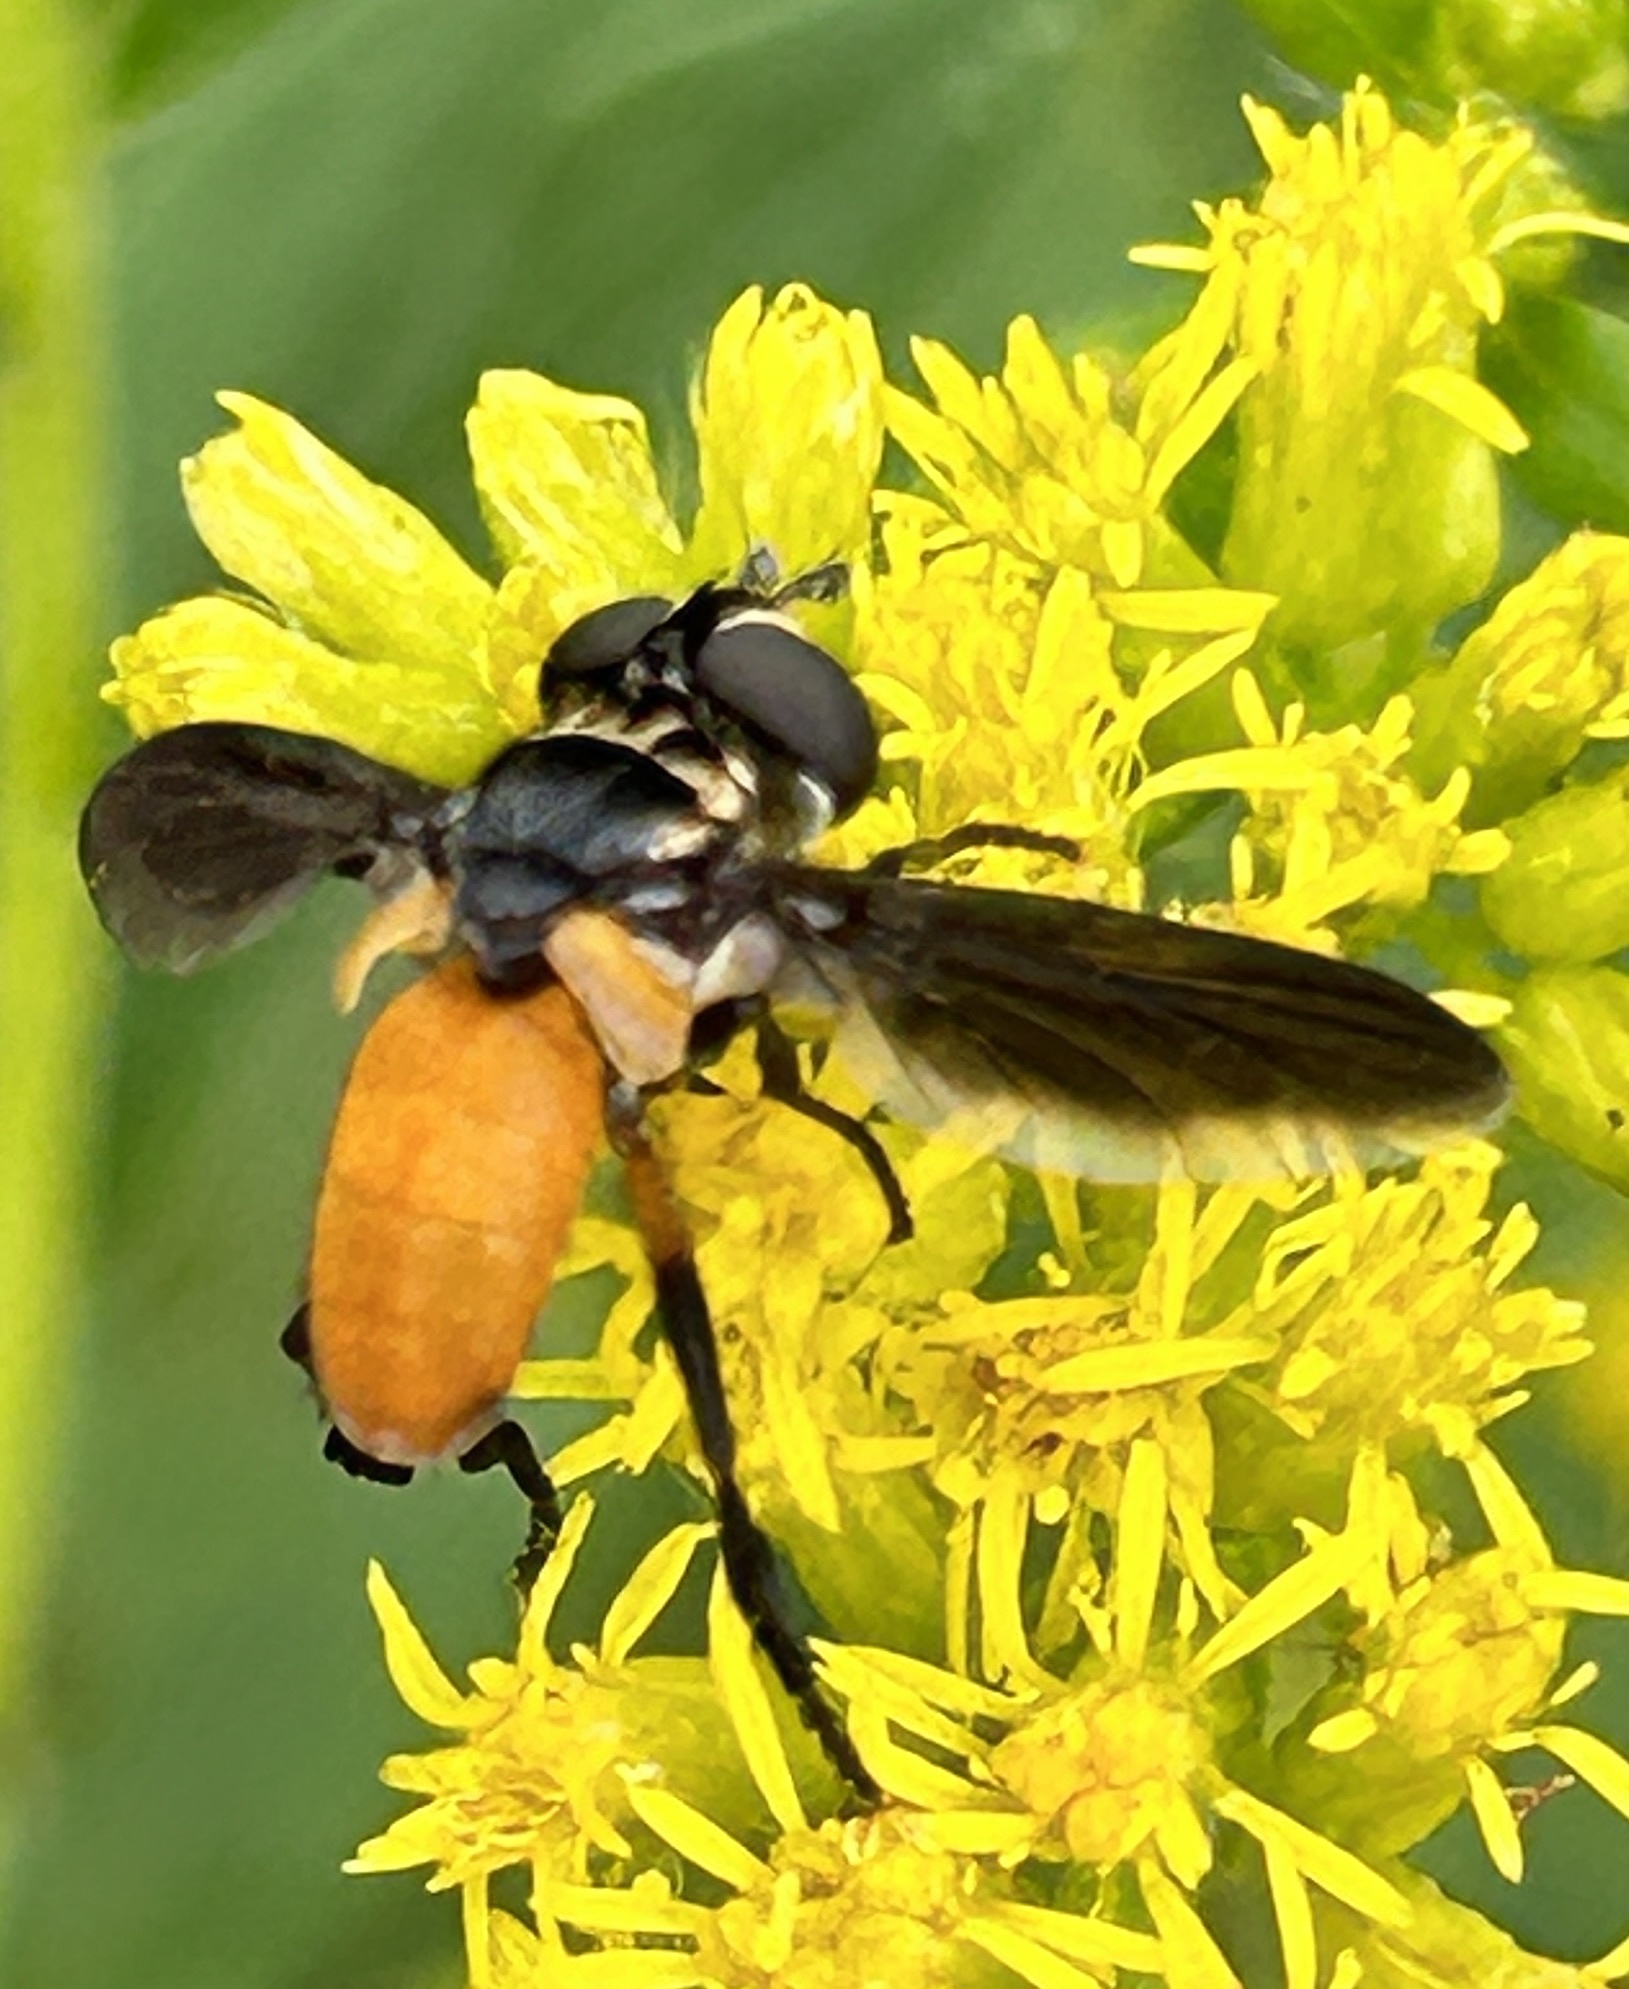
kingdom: Animalia
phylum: Arthropoda
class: Insecta
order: Diptera
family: Tachinidae
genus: Trichopoda
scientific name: Trichopoda pennipes
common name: Tachinid fly
